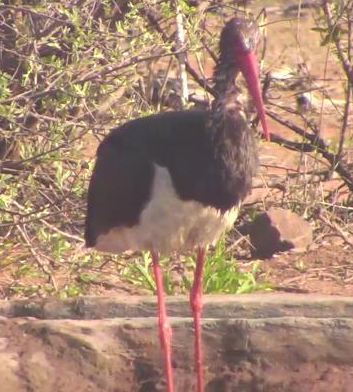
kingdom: Animalia
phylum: Chordata
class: Aves
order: Ciconiiformes
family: Ciconiidae
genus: Ciconia
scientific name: Ciconia nigra
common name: Black stork
